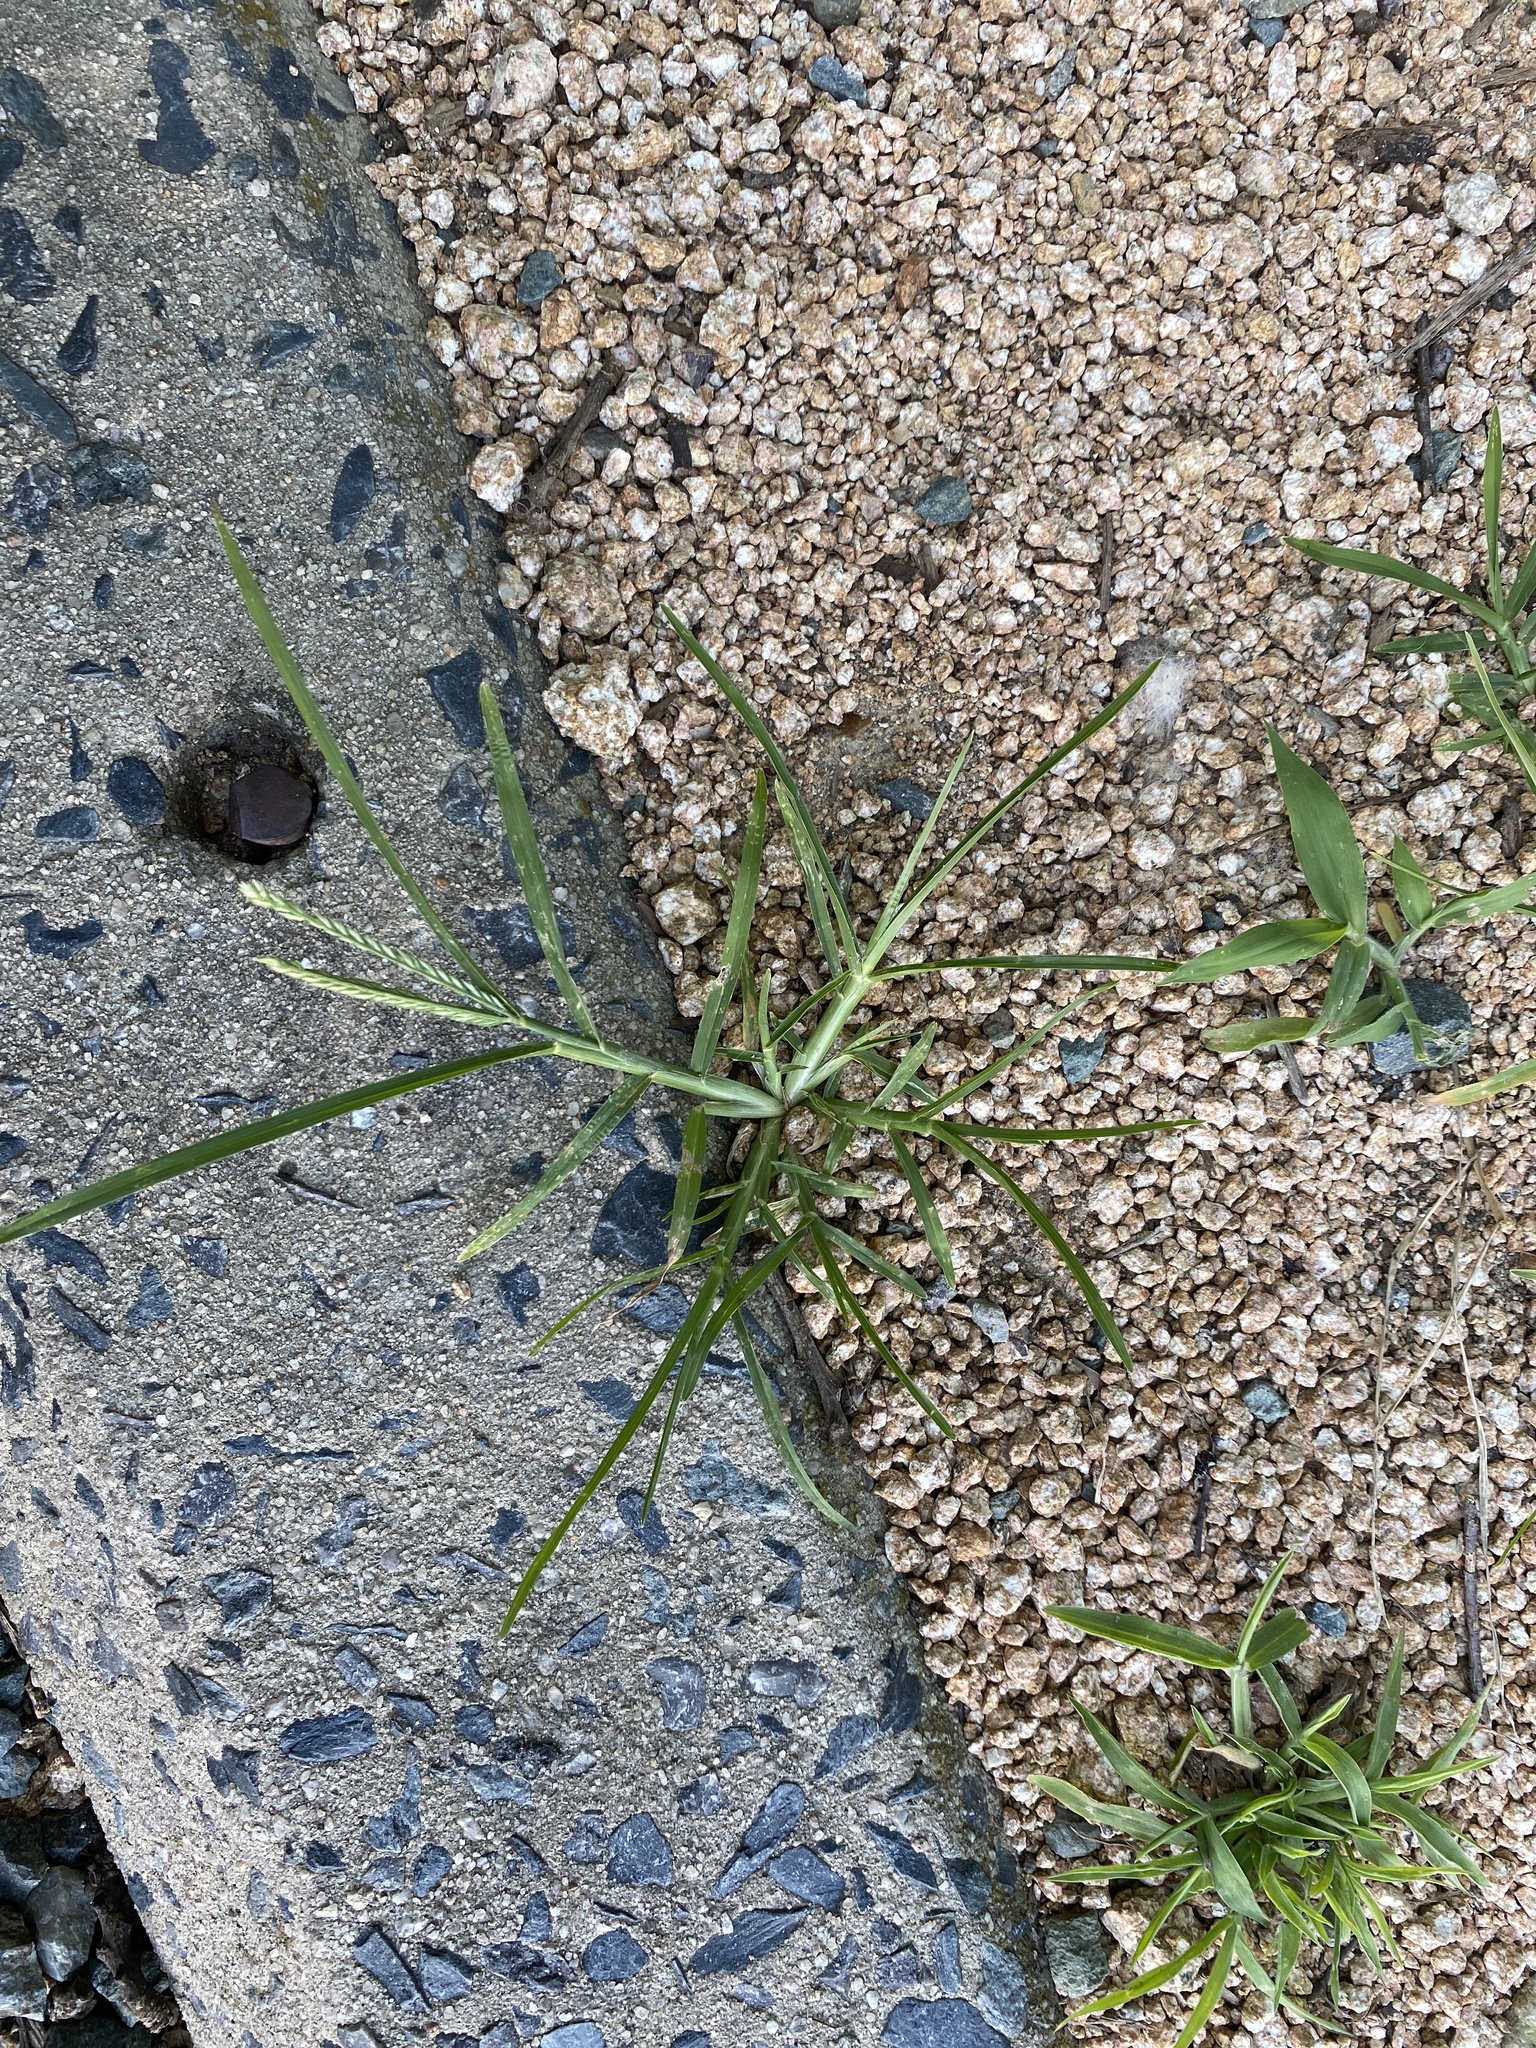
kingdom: Plantae
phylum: Tracheophyta
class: Liliopsida
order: Poales
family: Poaceae
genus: Eleusine
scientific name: Eleusine indica
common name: Yard-grass
